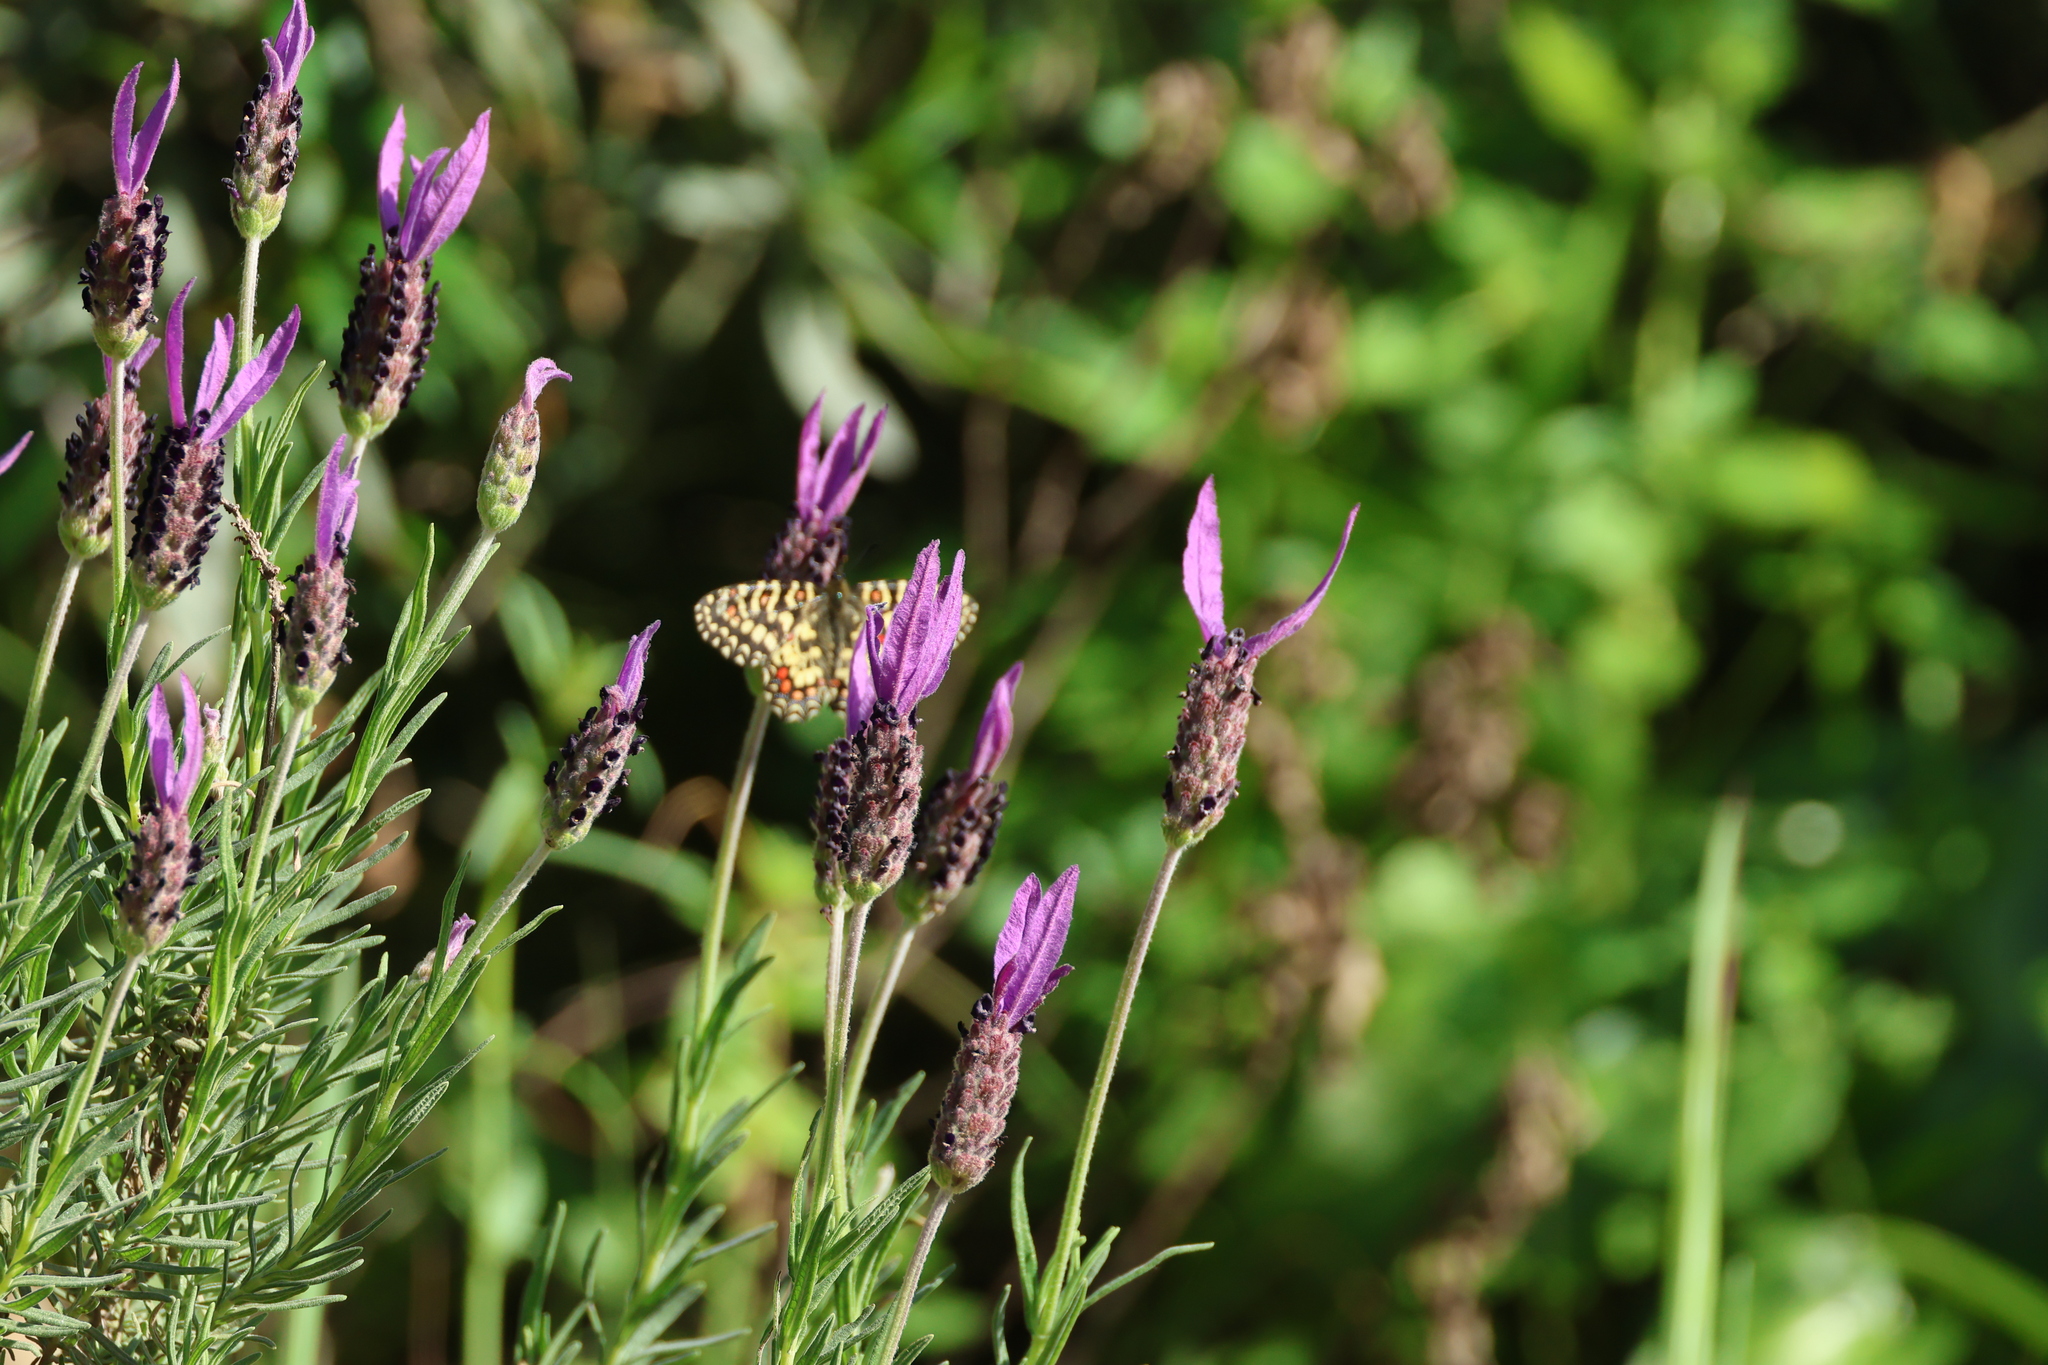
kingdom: Animalia
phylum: Arthropoda
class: Insecta
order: Lepidoptera
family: Papilionidae
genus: Zerynthia
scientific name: Zerynthia rumina
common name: Spanish festoon
